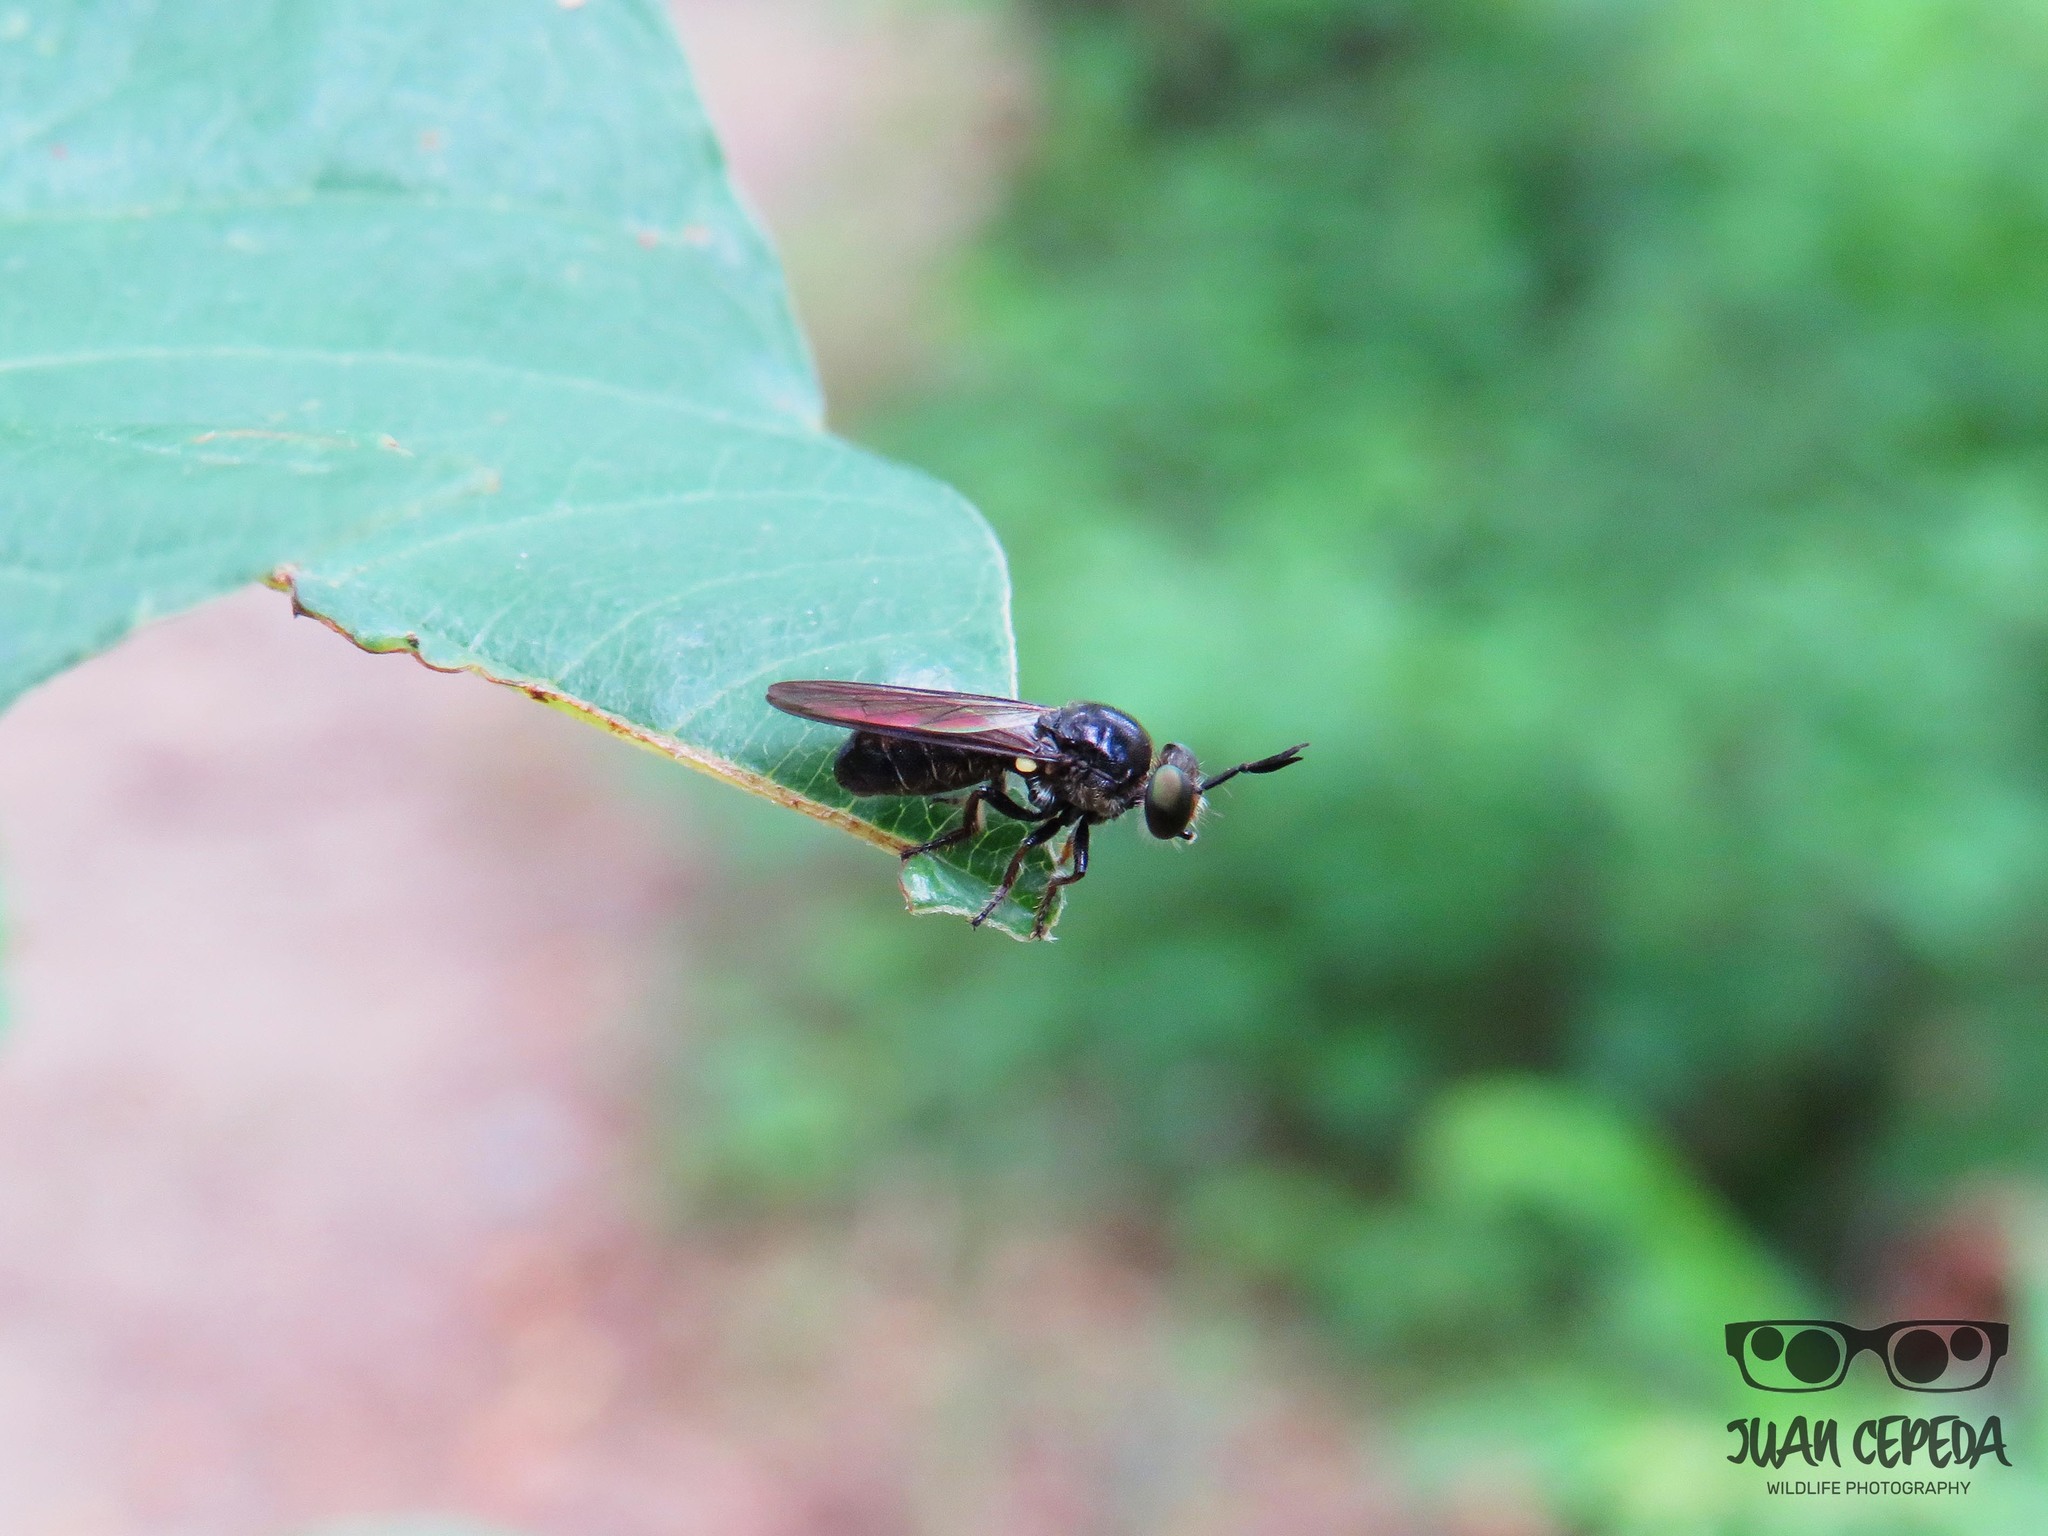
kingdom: Animalia
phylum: Arthropoda
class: Insecta
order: Diptera
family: Asilidae
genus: Cerotainia
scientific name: Cerotainia
